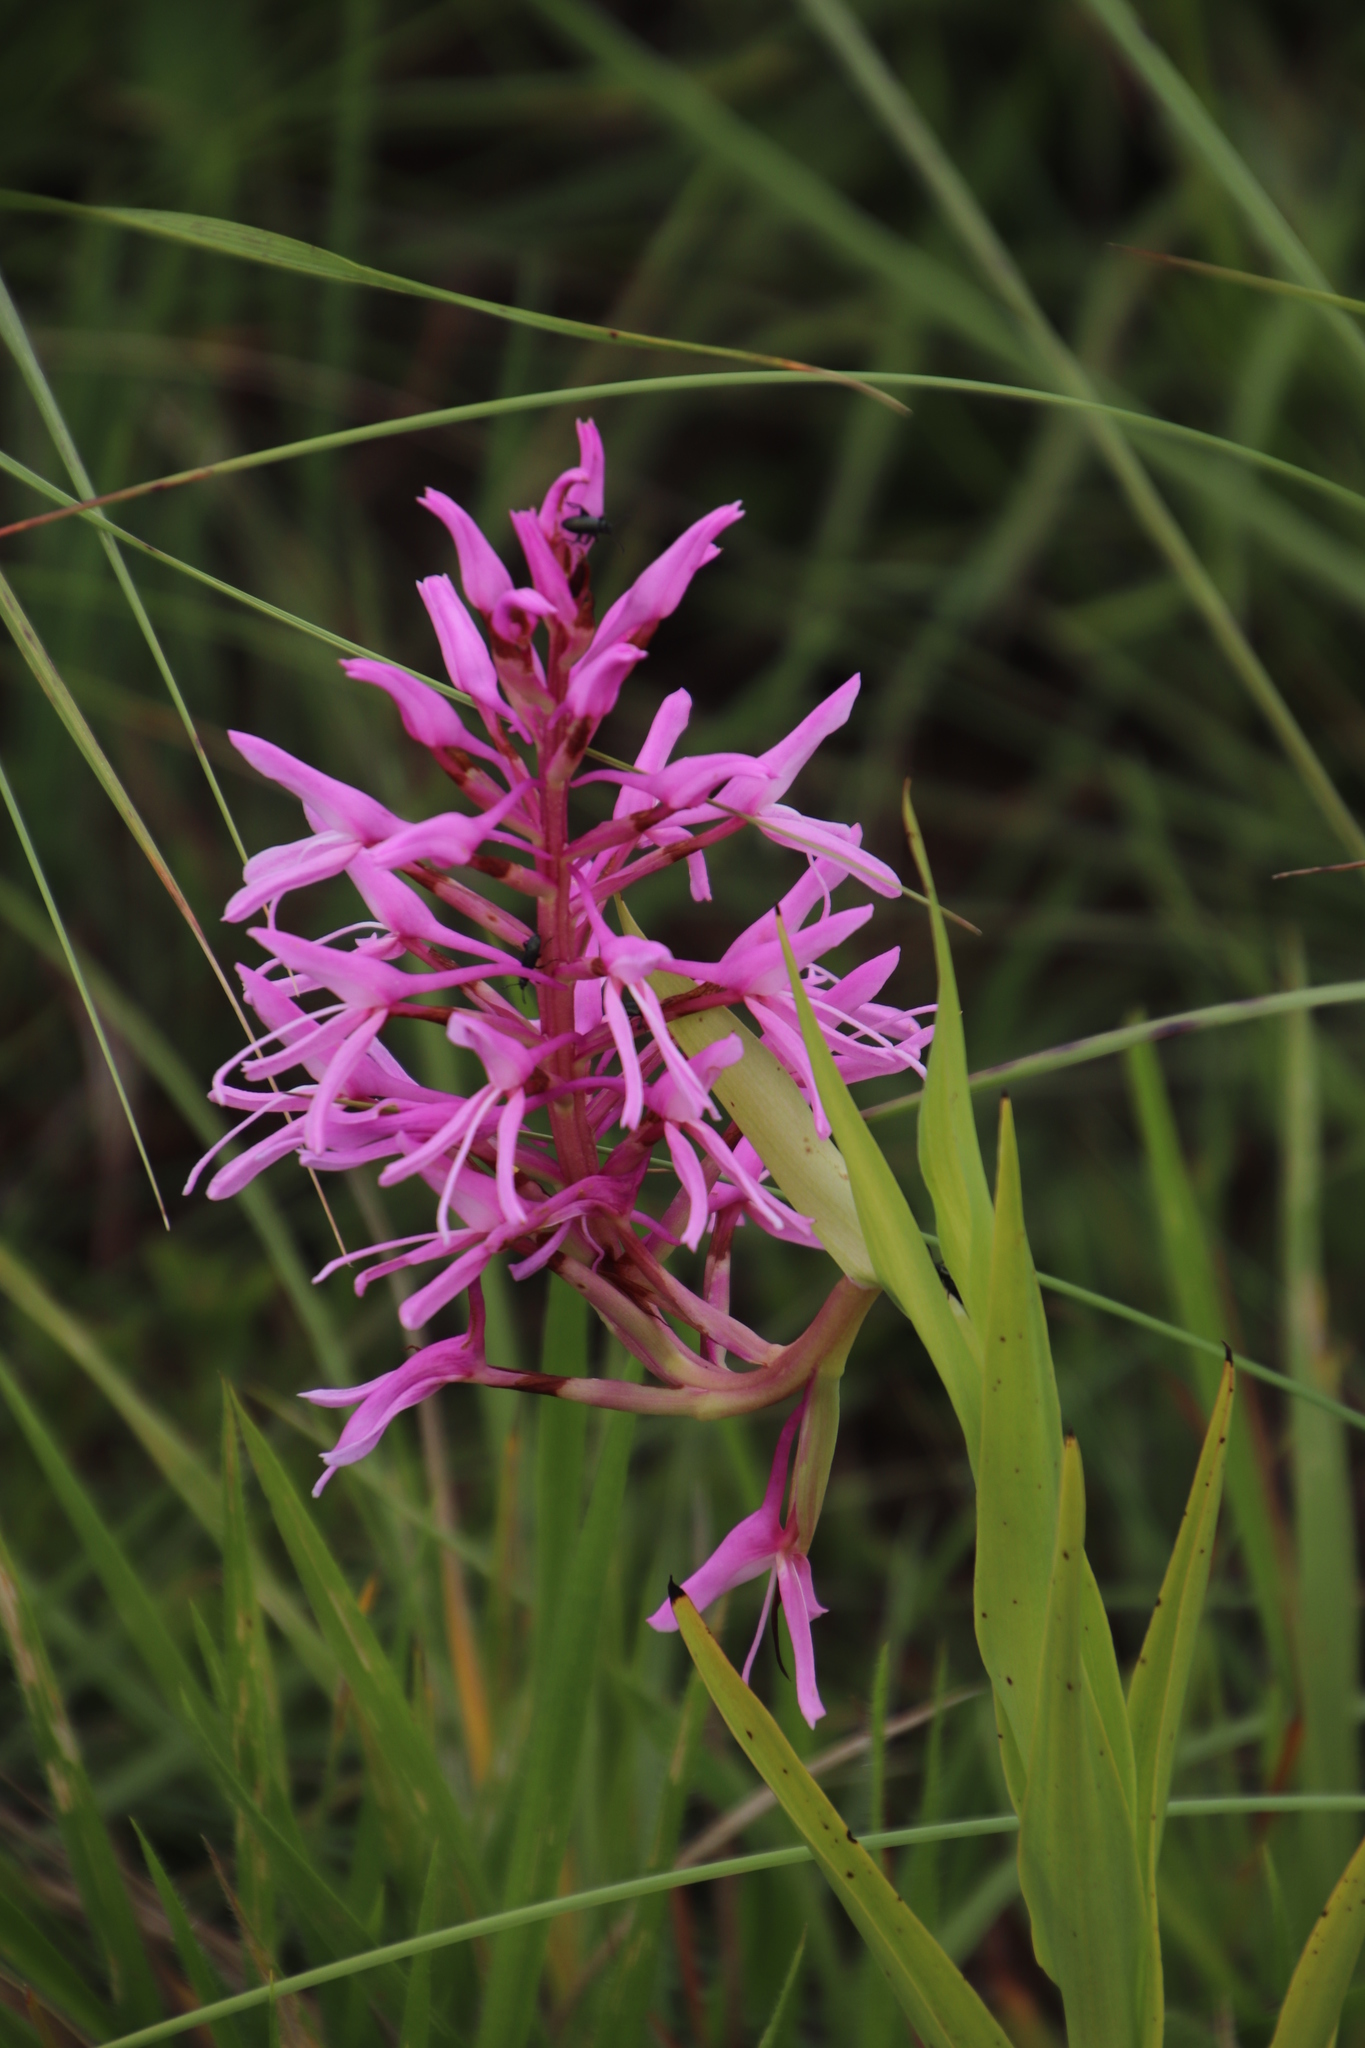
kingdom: Plantae
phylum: Tracheophyta
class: Liliopsida
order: Asparagales
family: Orchidaceae
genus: Disa
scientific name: Disa nervosa
